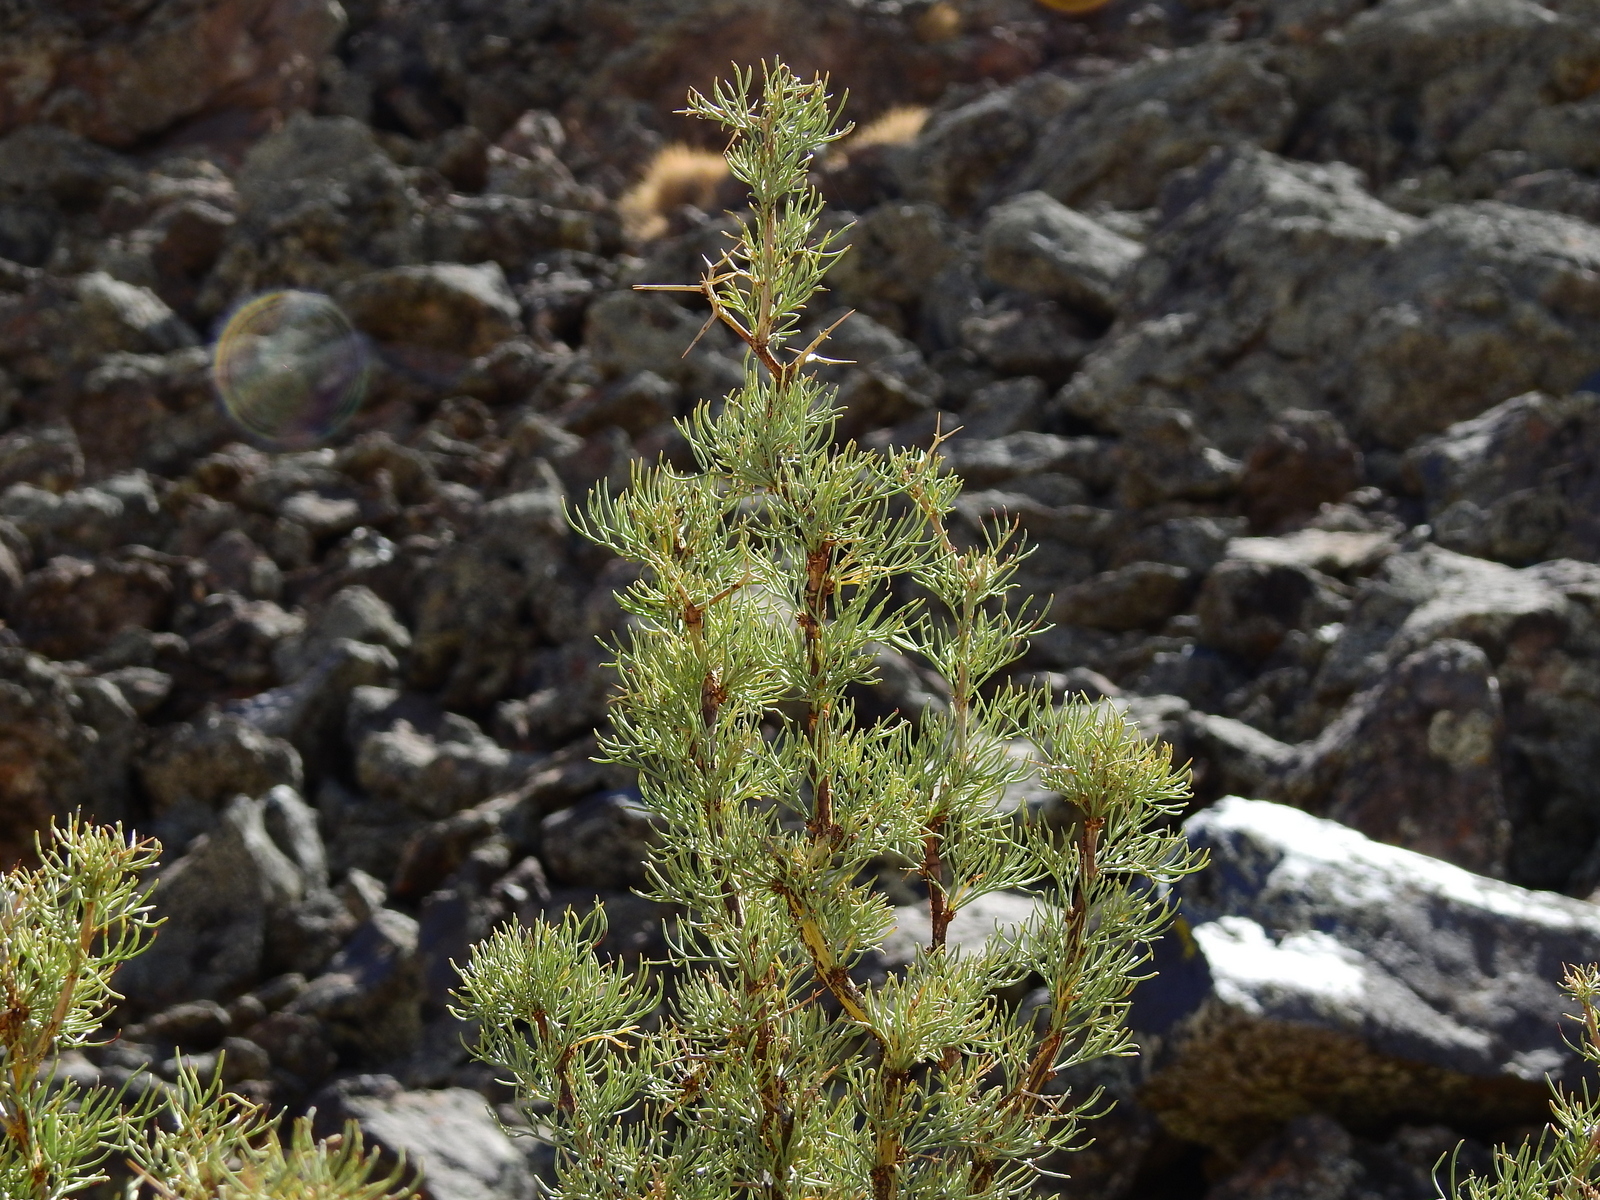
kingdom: Plantae
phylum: Tracheophyta
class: Magnoliopsida
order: Fabales
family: Fabaceae
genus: Adesmia
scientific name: Adesmia pinifolia
